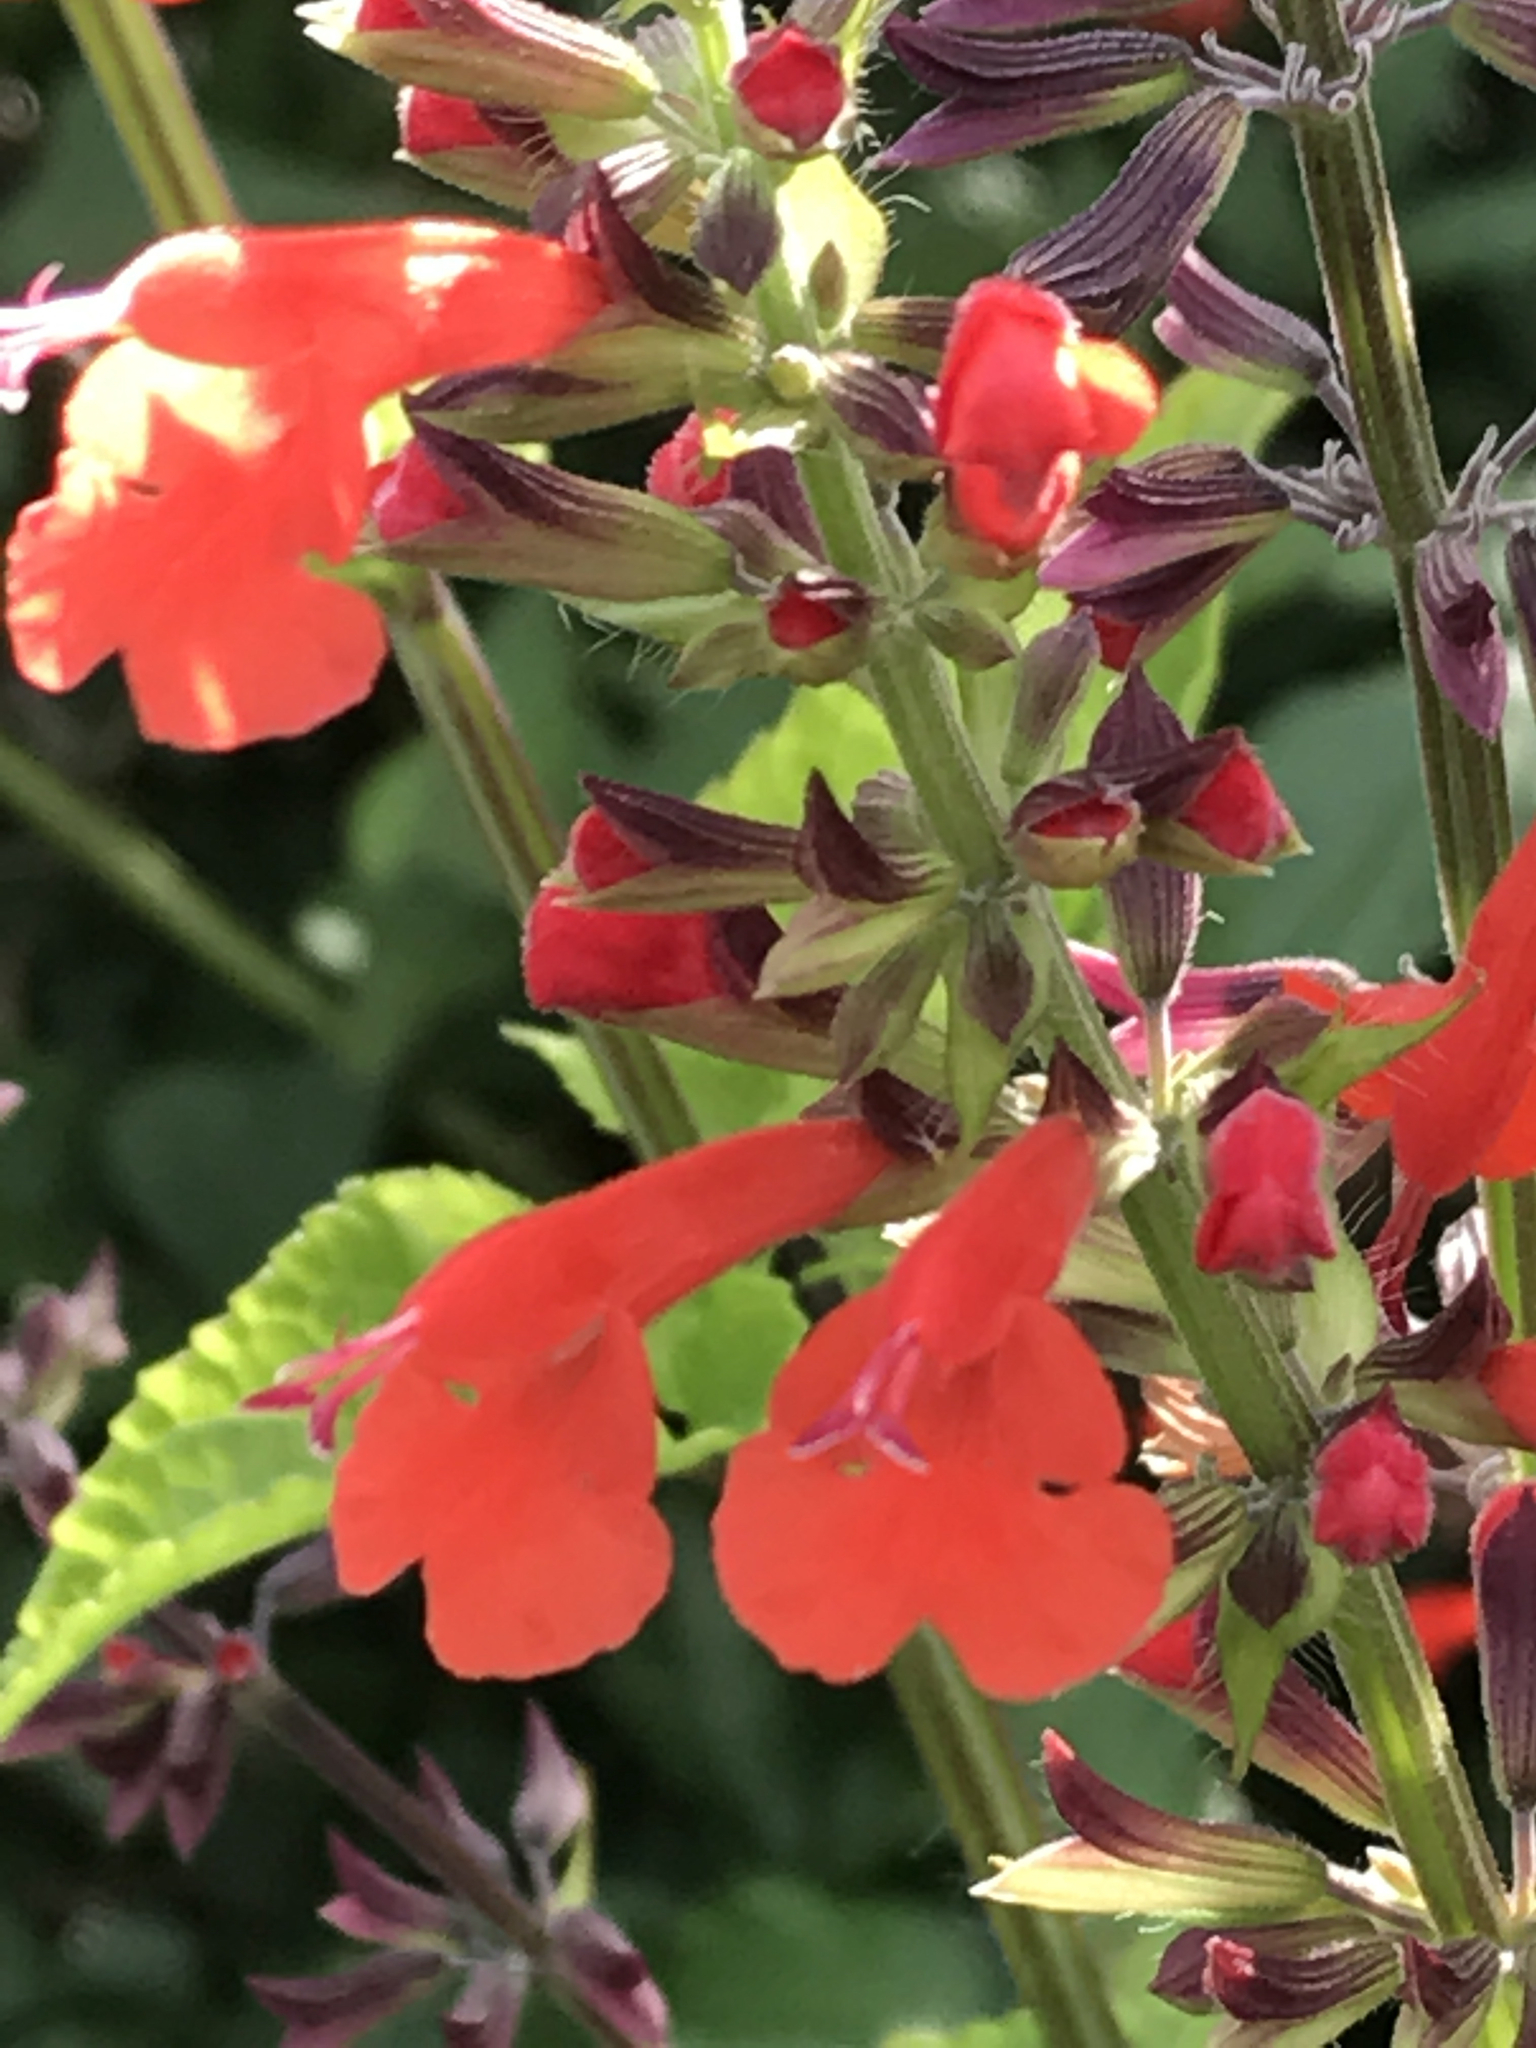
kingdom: Plantae
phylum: Tracheophyta
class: Magnoliopsida
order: Lamiales
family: Lamiaceae
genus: Salvia
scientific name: Salvia coccinea
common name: Blood sage
